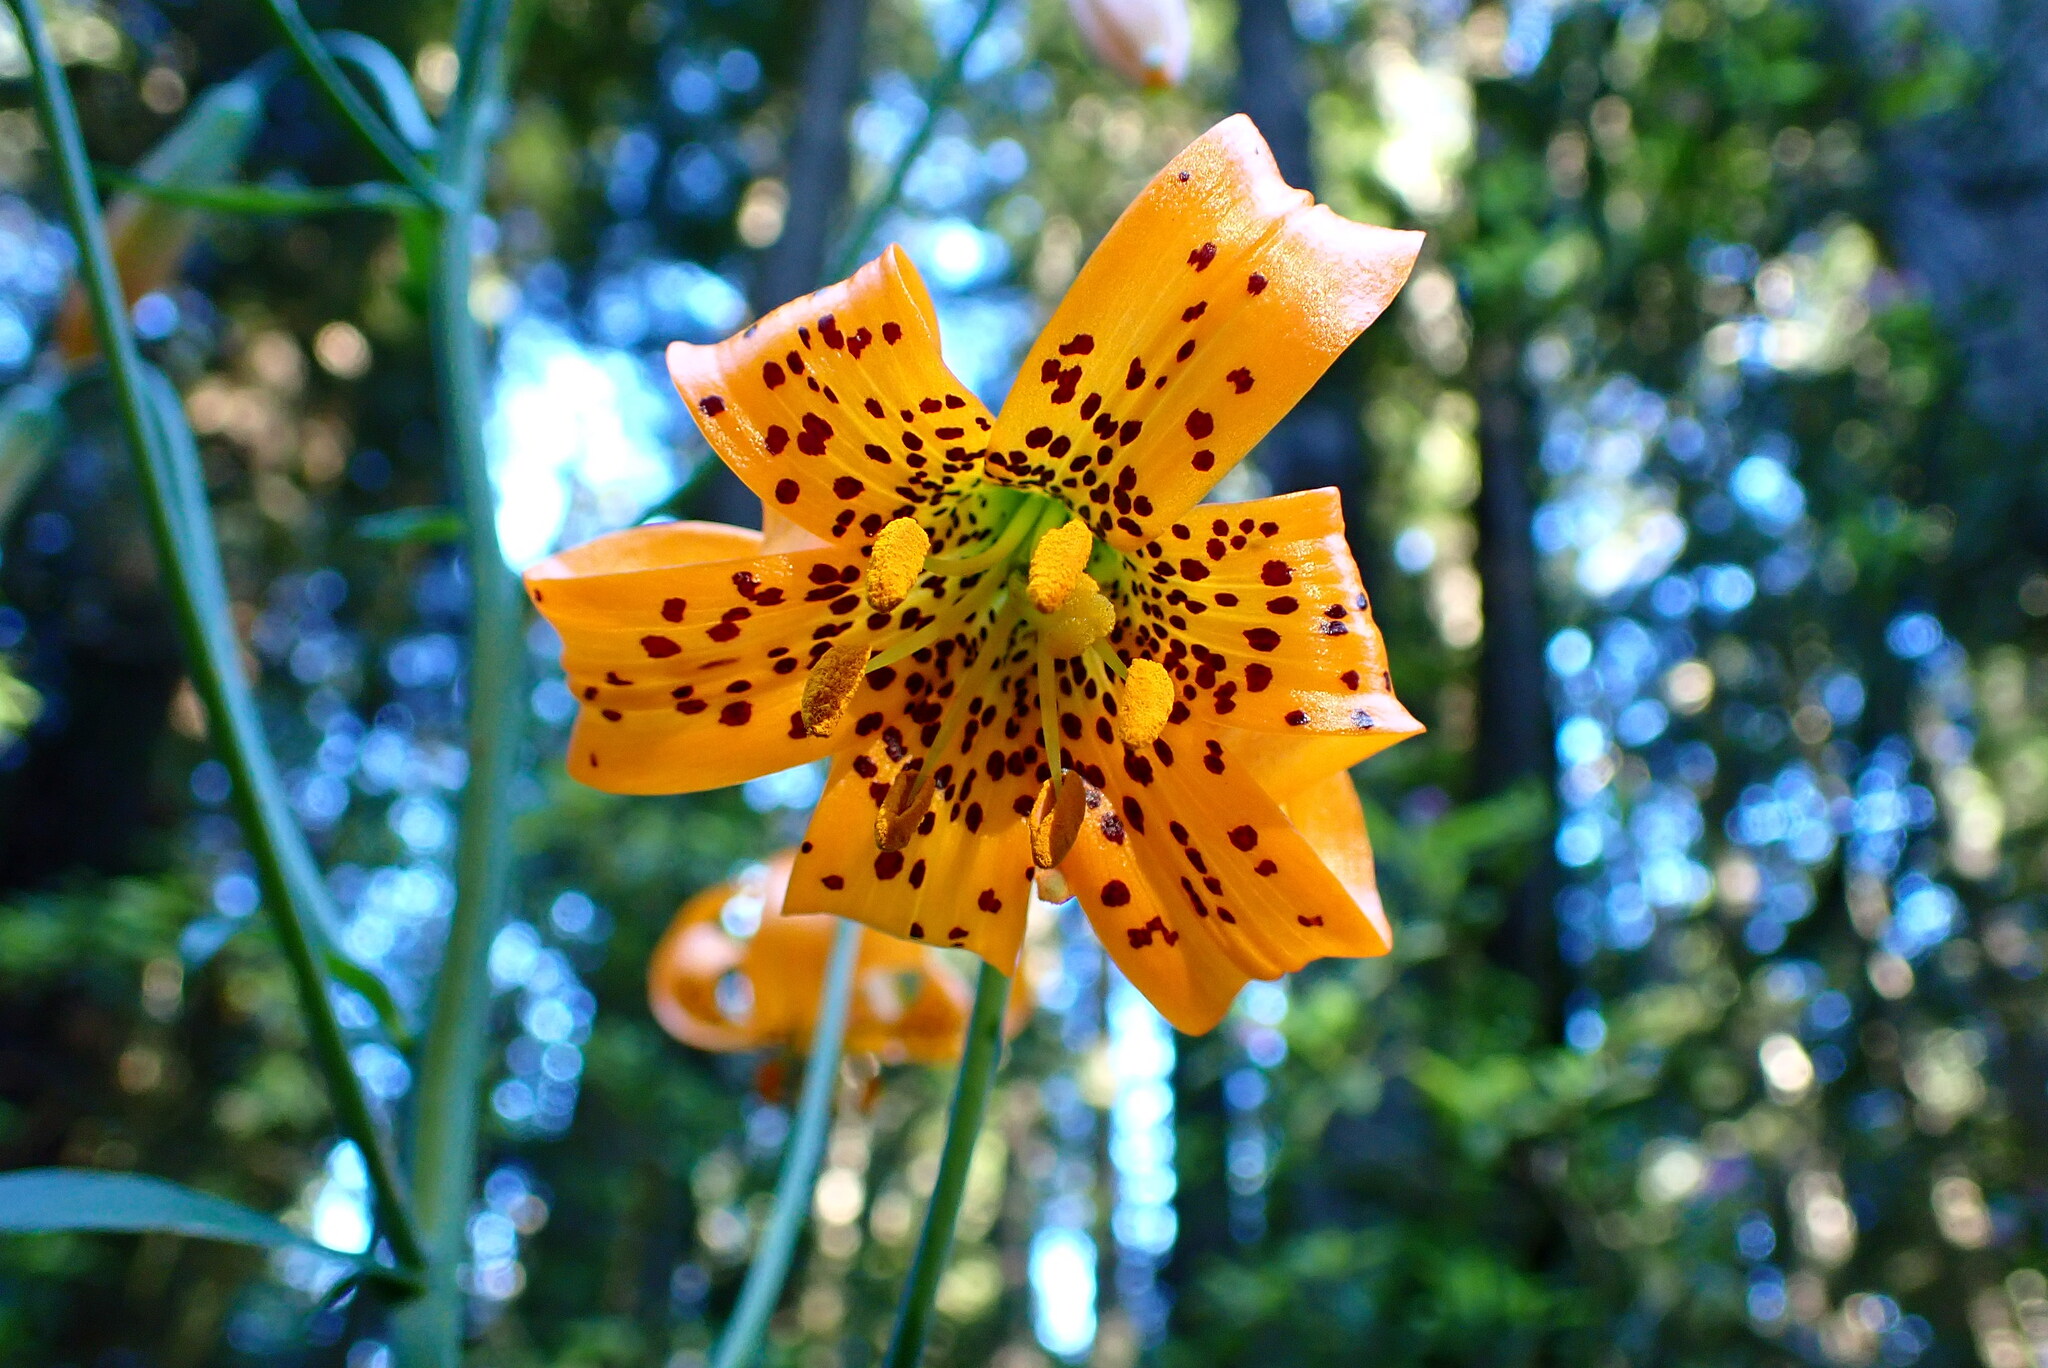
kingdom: Plantae
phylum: Tracheophyta
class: Liliopsida
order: Liliales
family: Liliaceae
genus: Lilium
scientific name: Lilium columbianum
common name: Columbia lily
